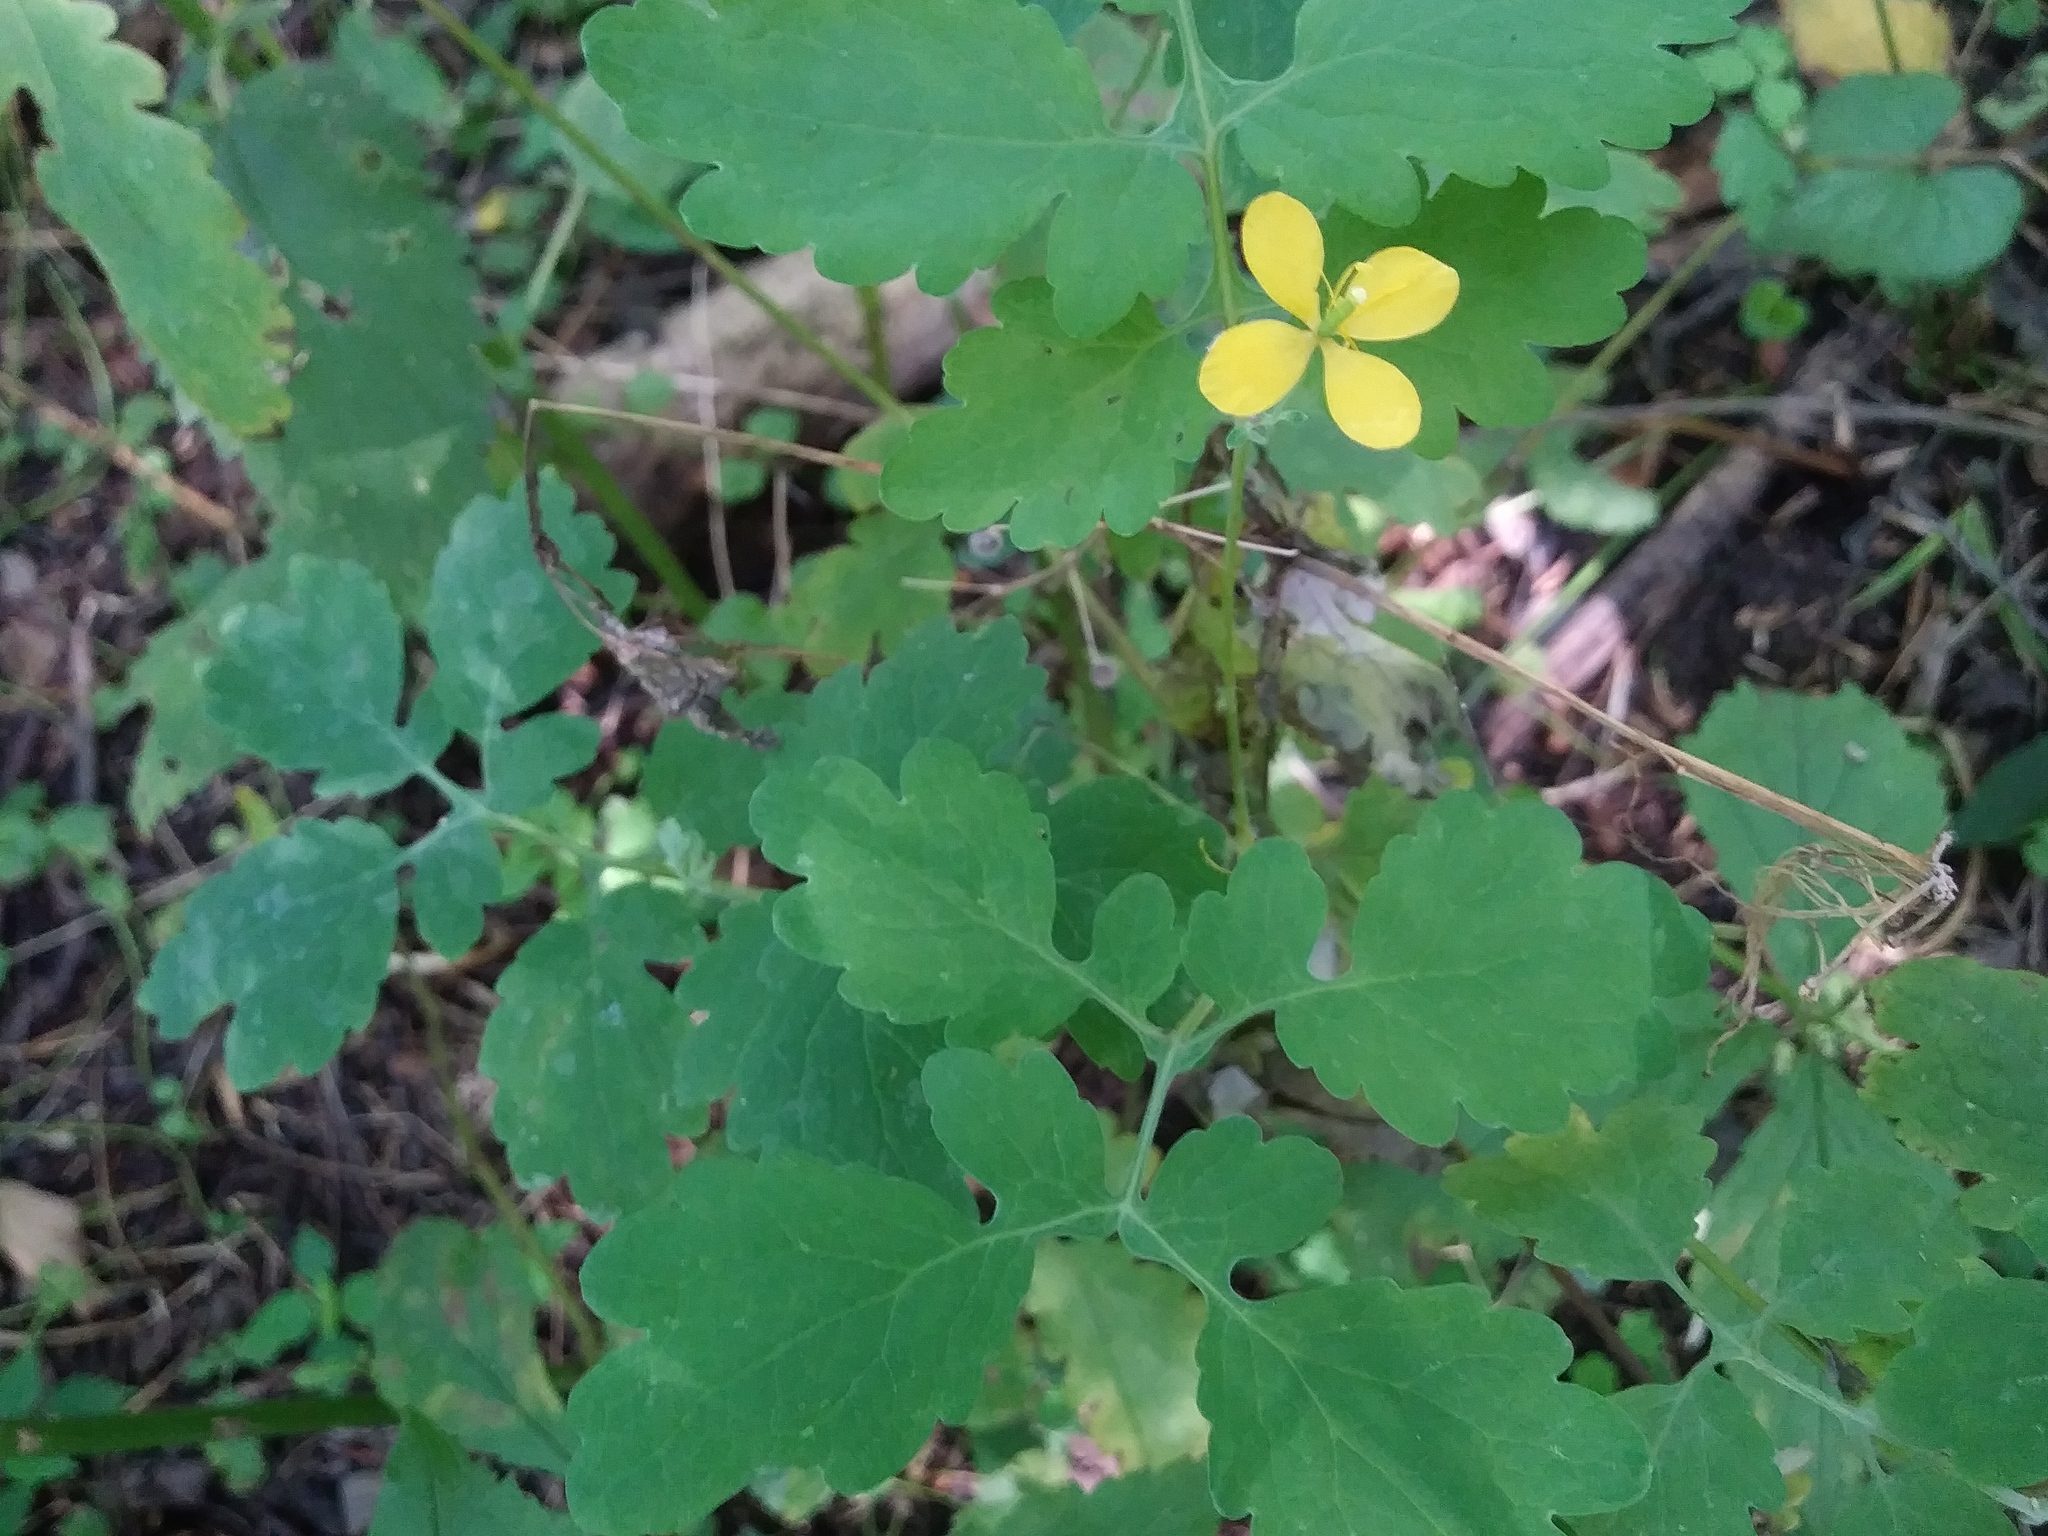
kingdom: Plantae
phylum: Tracheophyta
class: Magnoliopsida
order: Ranunculales
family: Papaveraceae
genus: Chelidonium
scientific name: Chelidonium majus
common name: Greater celandine
